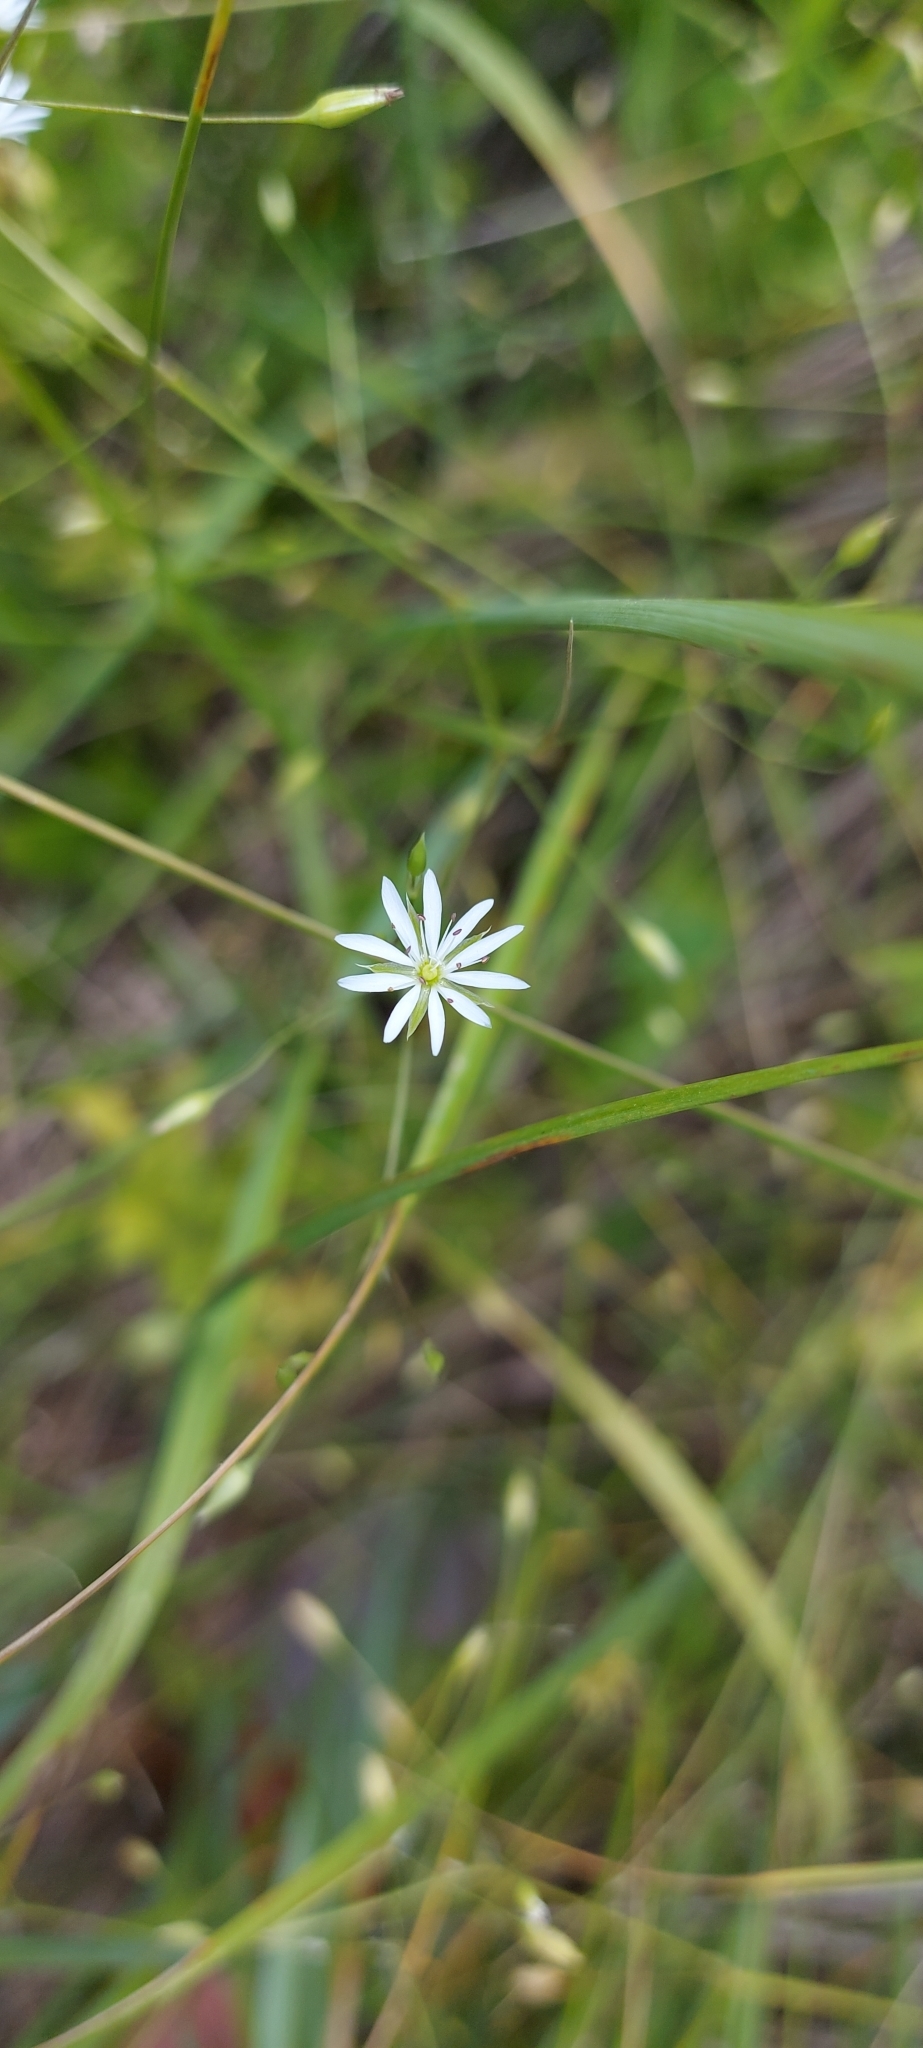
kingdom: Plantae
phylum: Tracheophyta
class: Magnoliopsida
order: Caryophyllales
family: Caryophyllaceae
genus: Stellaria
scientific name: Stellaria graminea
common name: Grass-like starwort
